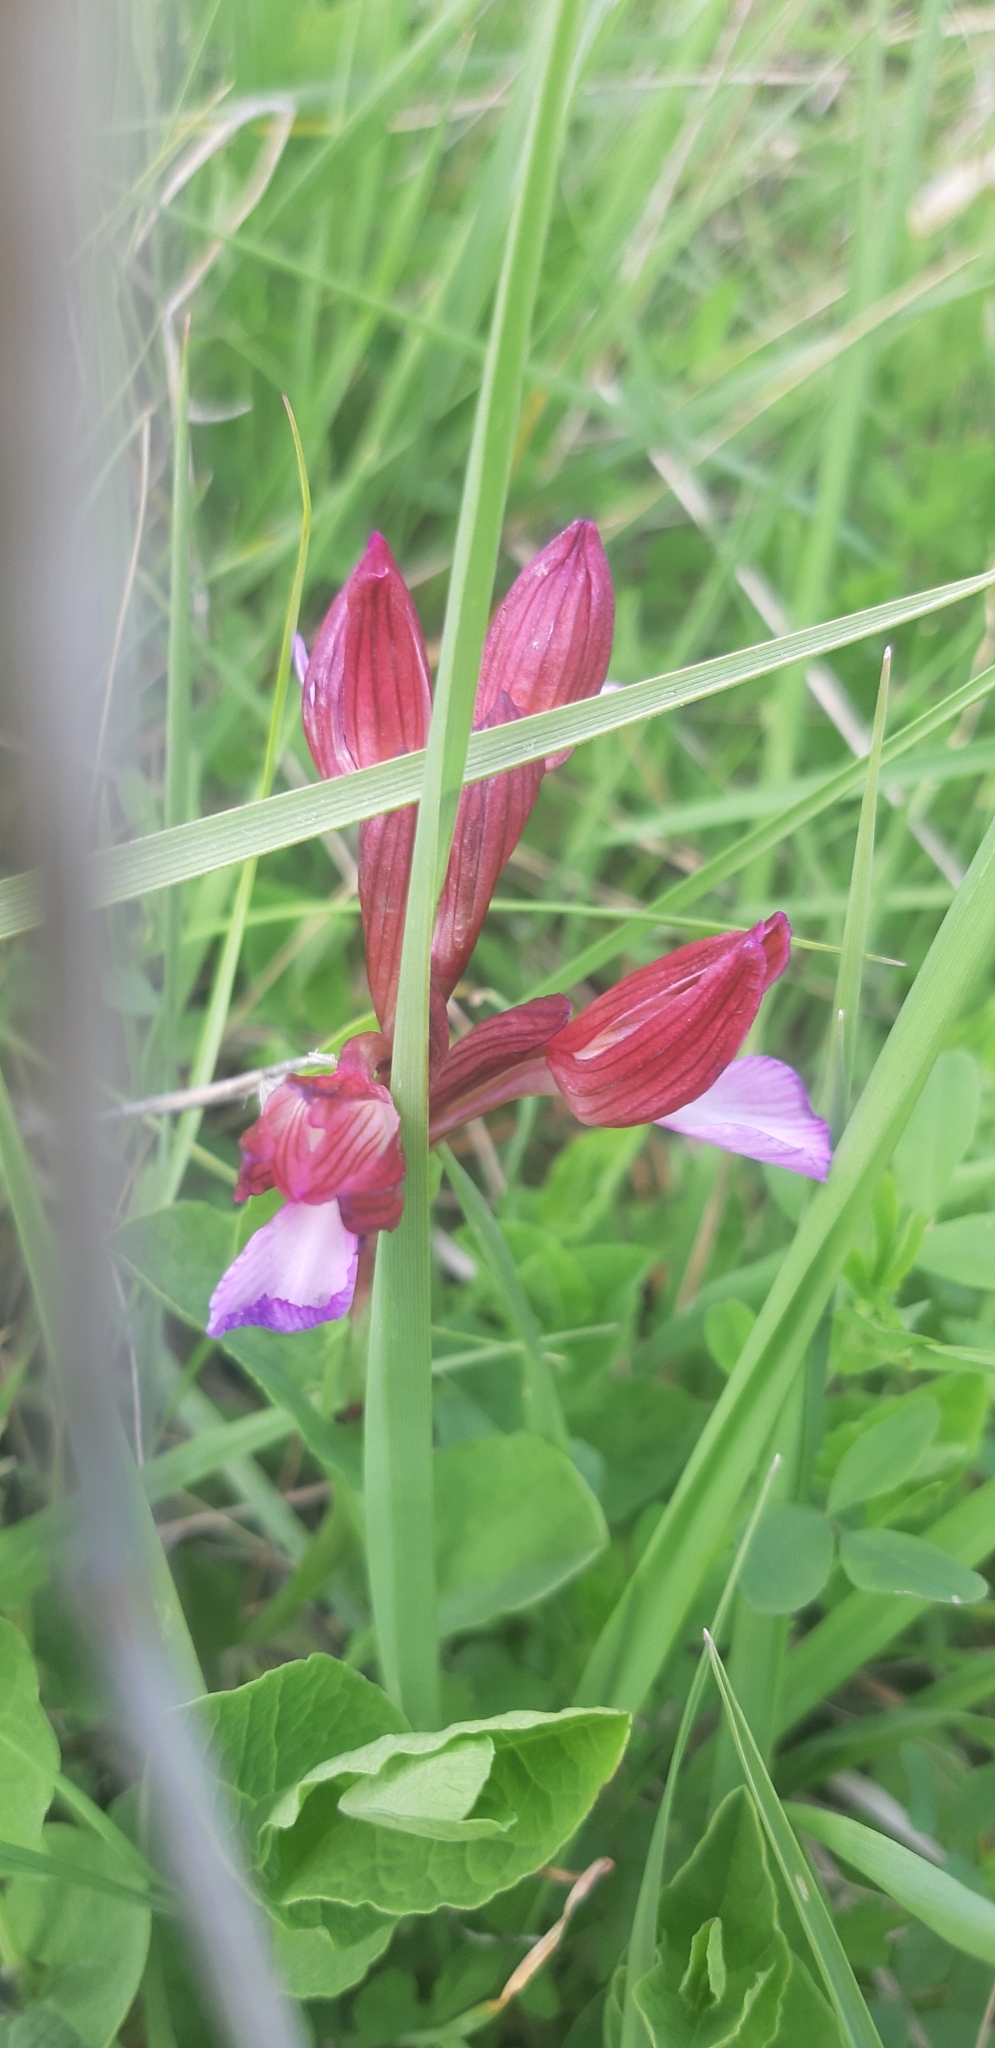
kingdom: Plantae
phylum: Tracheophyta
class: Liliopsida
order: Asparagales
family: Orchidaceae
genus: Anacamptis
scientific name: Anacamptis papilionacea
